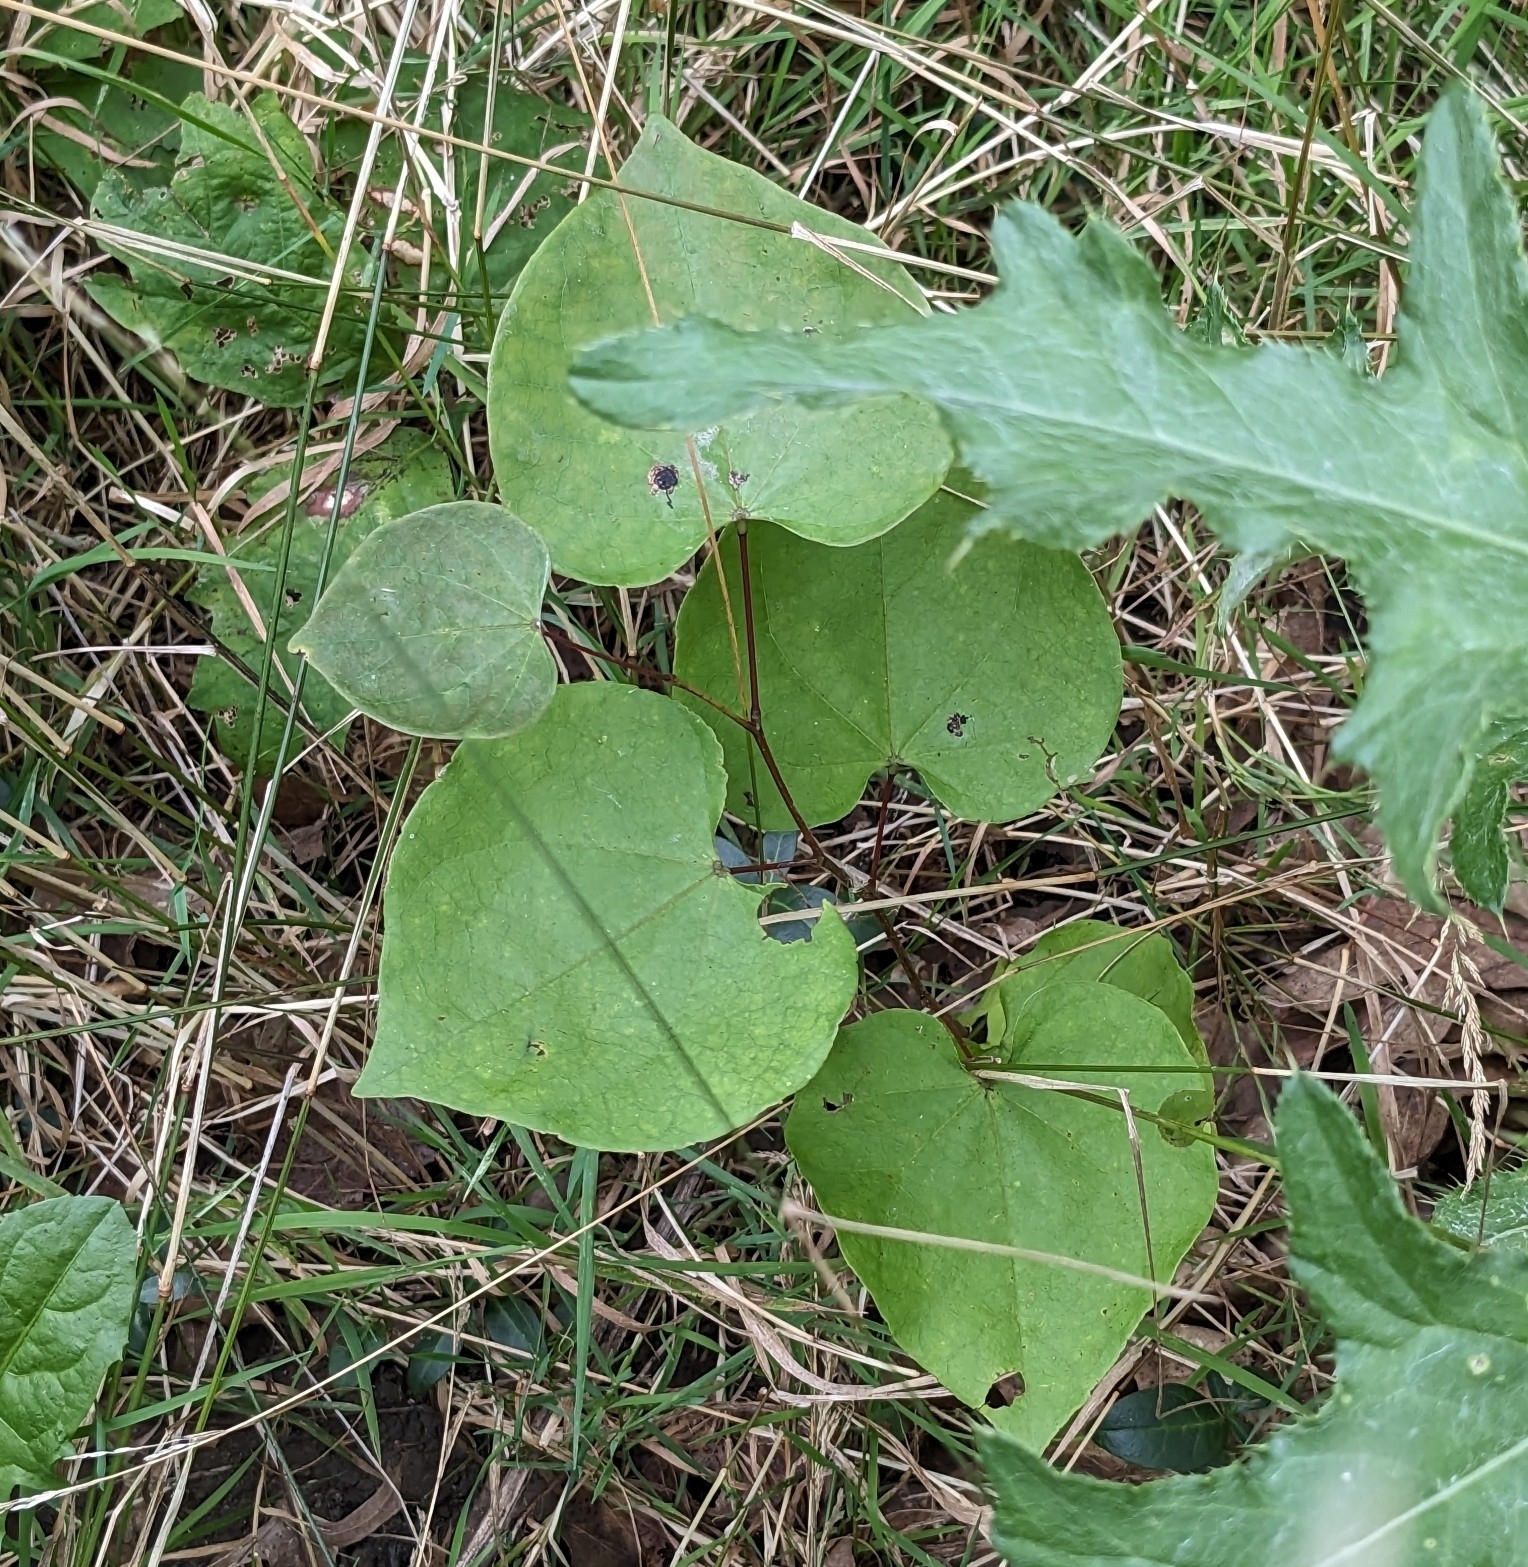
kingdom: Plantae
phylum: Tracheophyta
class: Magnoliopsida
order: Fabales
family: Fabaceae
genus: Cercis
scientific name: Cercis canadensis
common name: Eastern redbud
